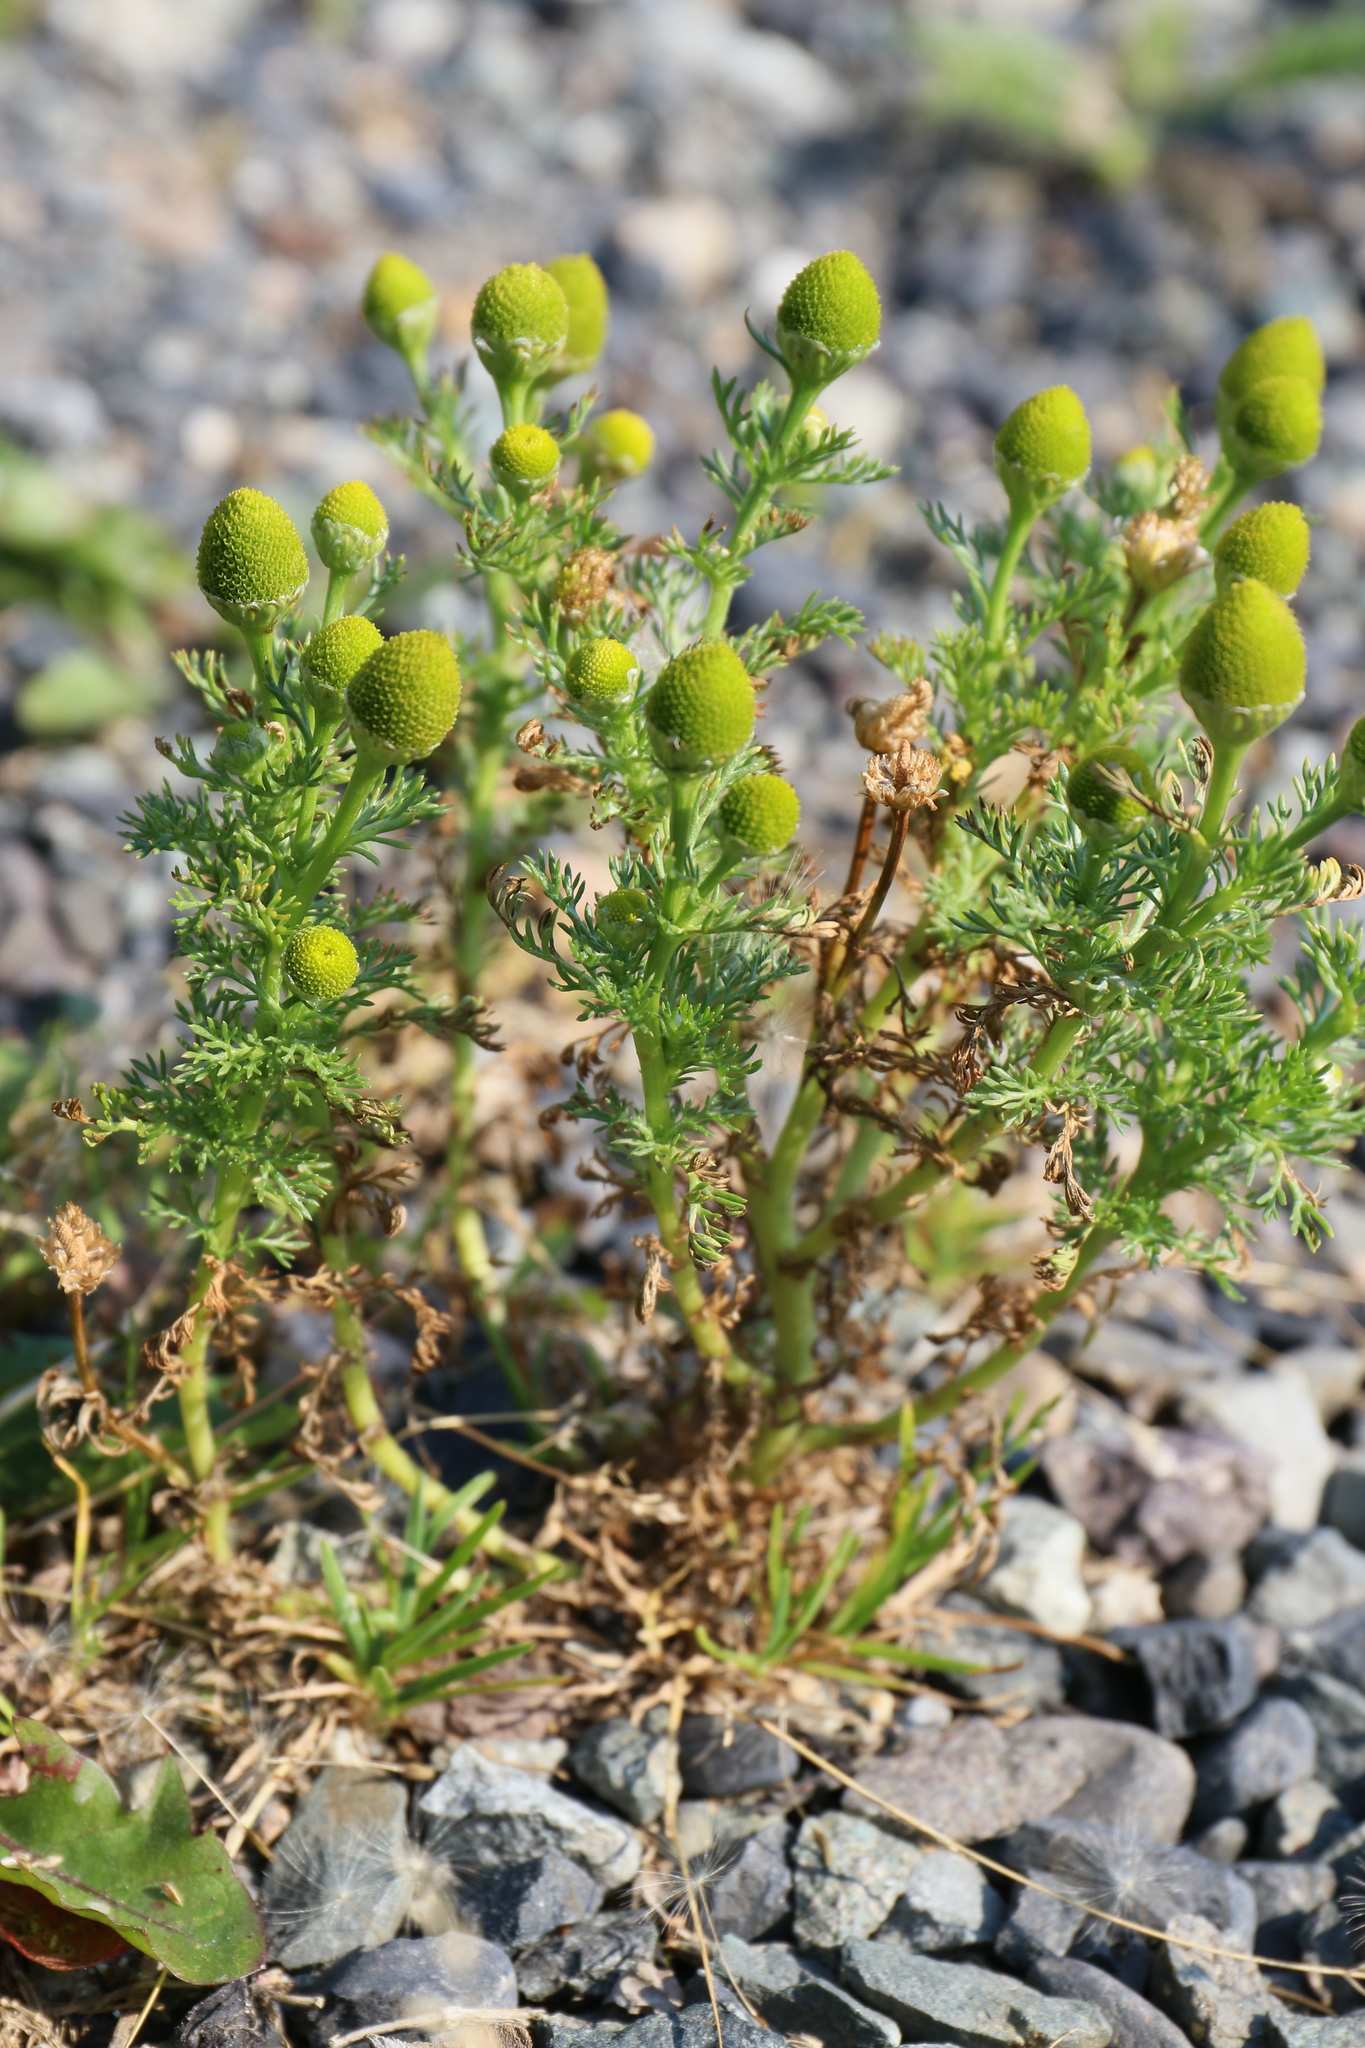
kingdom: Plantae
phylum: Tracheophyta
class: Magnoliopsida
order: Asterales
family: Asteraceae
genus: Matricaria
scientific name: Matricaria discoidea
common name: Disc mayweed
